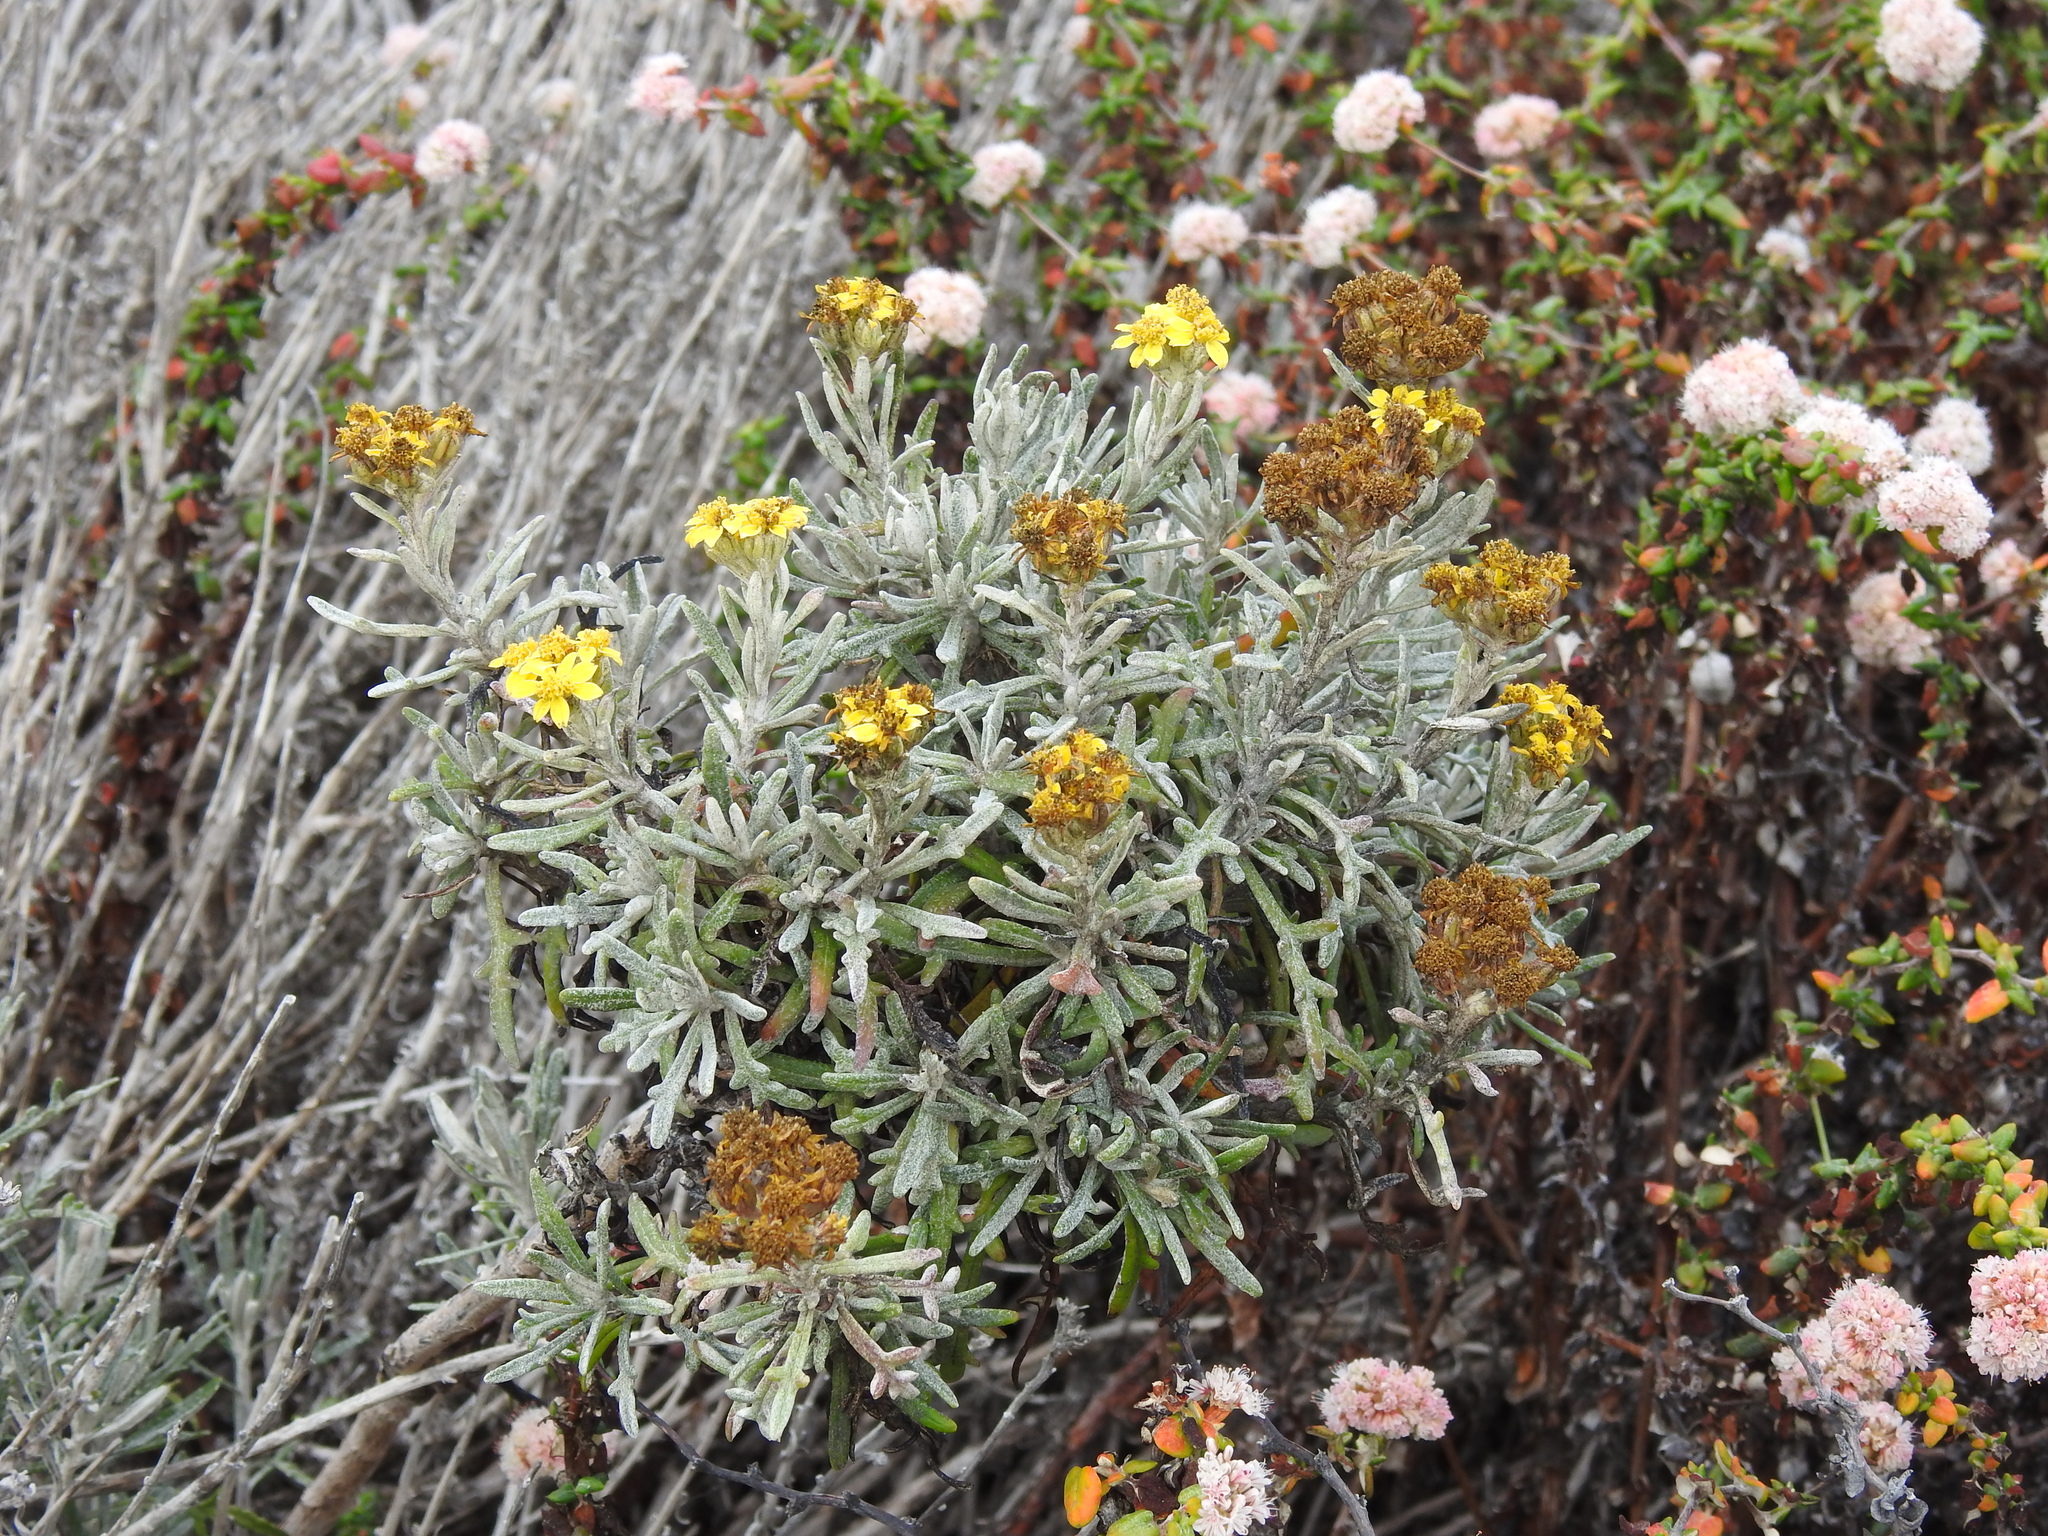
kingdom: Plantae
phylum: Tracheophyta
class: Magnoliopsida
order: Asterales
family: Asteraceae
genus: Eriophyllum
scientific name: Eriophyllum staechadifolium
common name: Lizardtail
